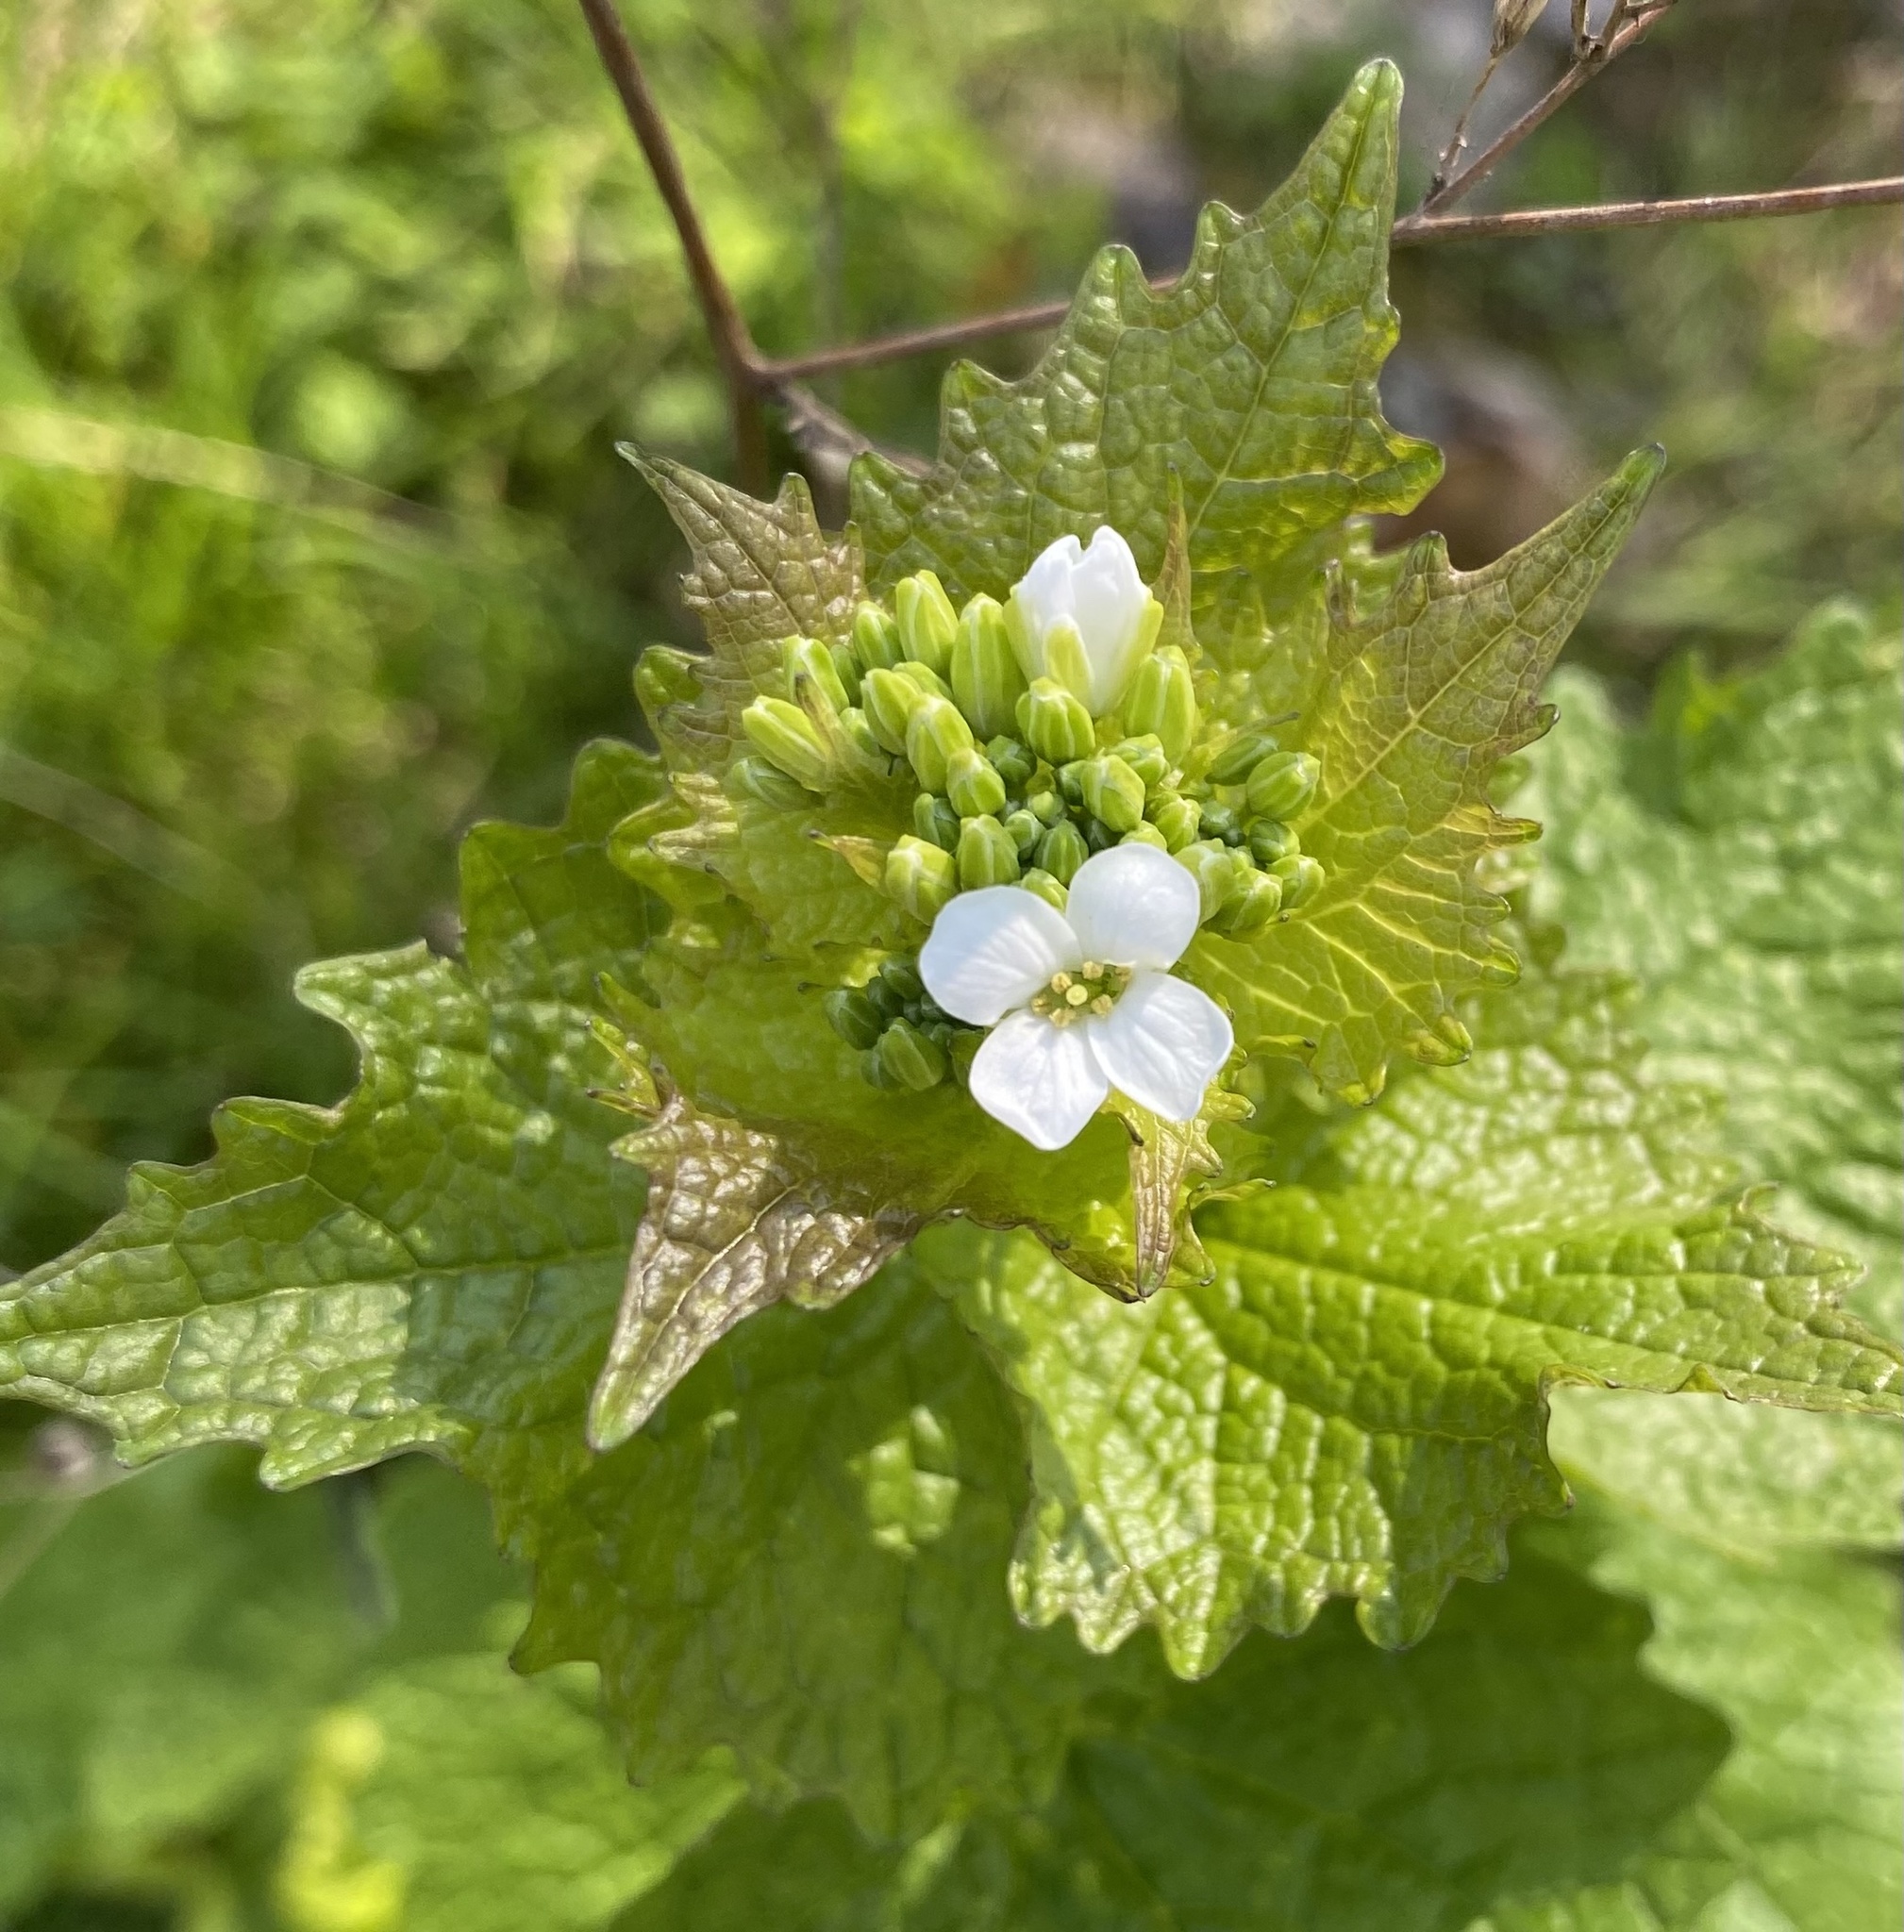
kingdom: Plantae
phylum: Tracheophyta
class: Magnoliopsida
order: Brassicales
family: Brassicaceae
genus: Alliaria
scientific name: Alliaria petiolata
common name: Garlic mustard
